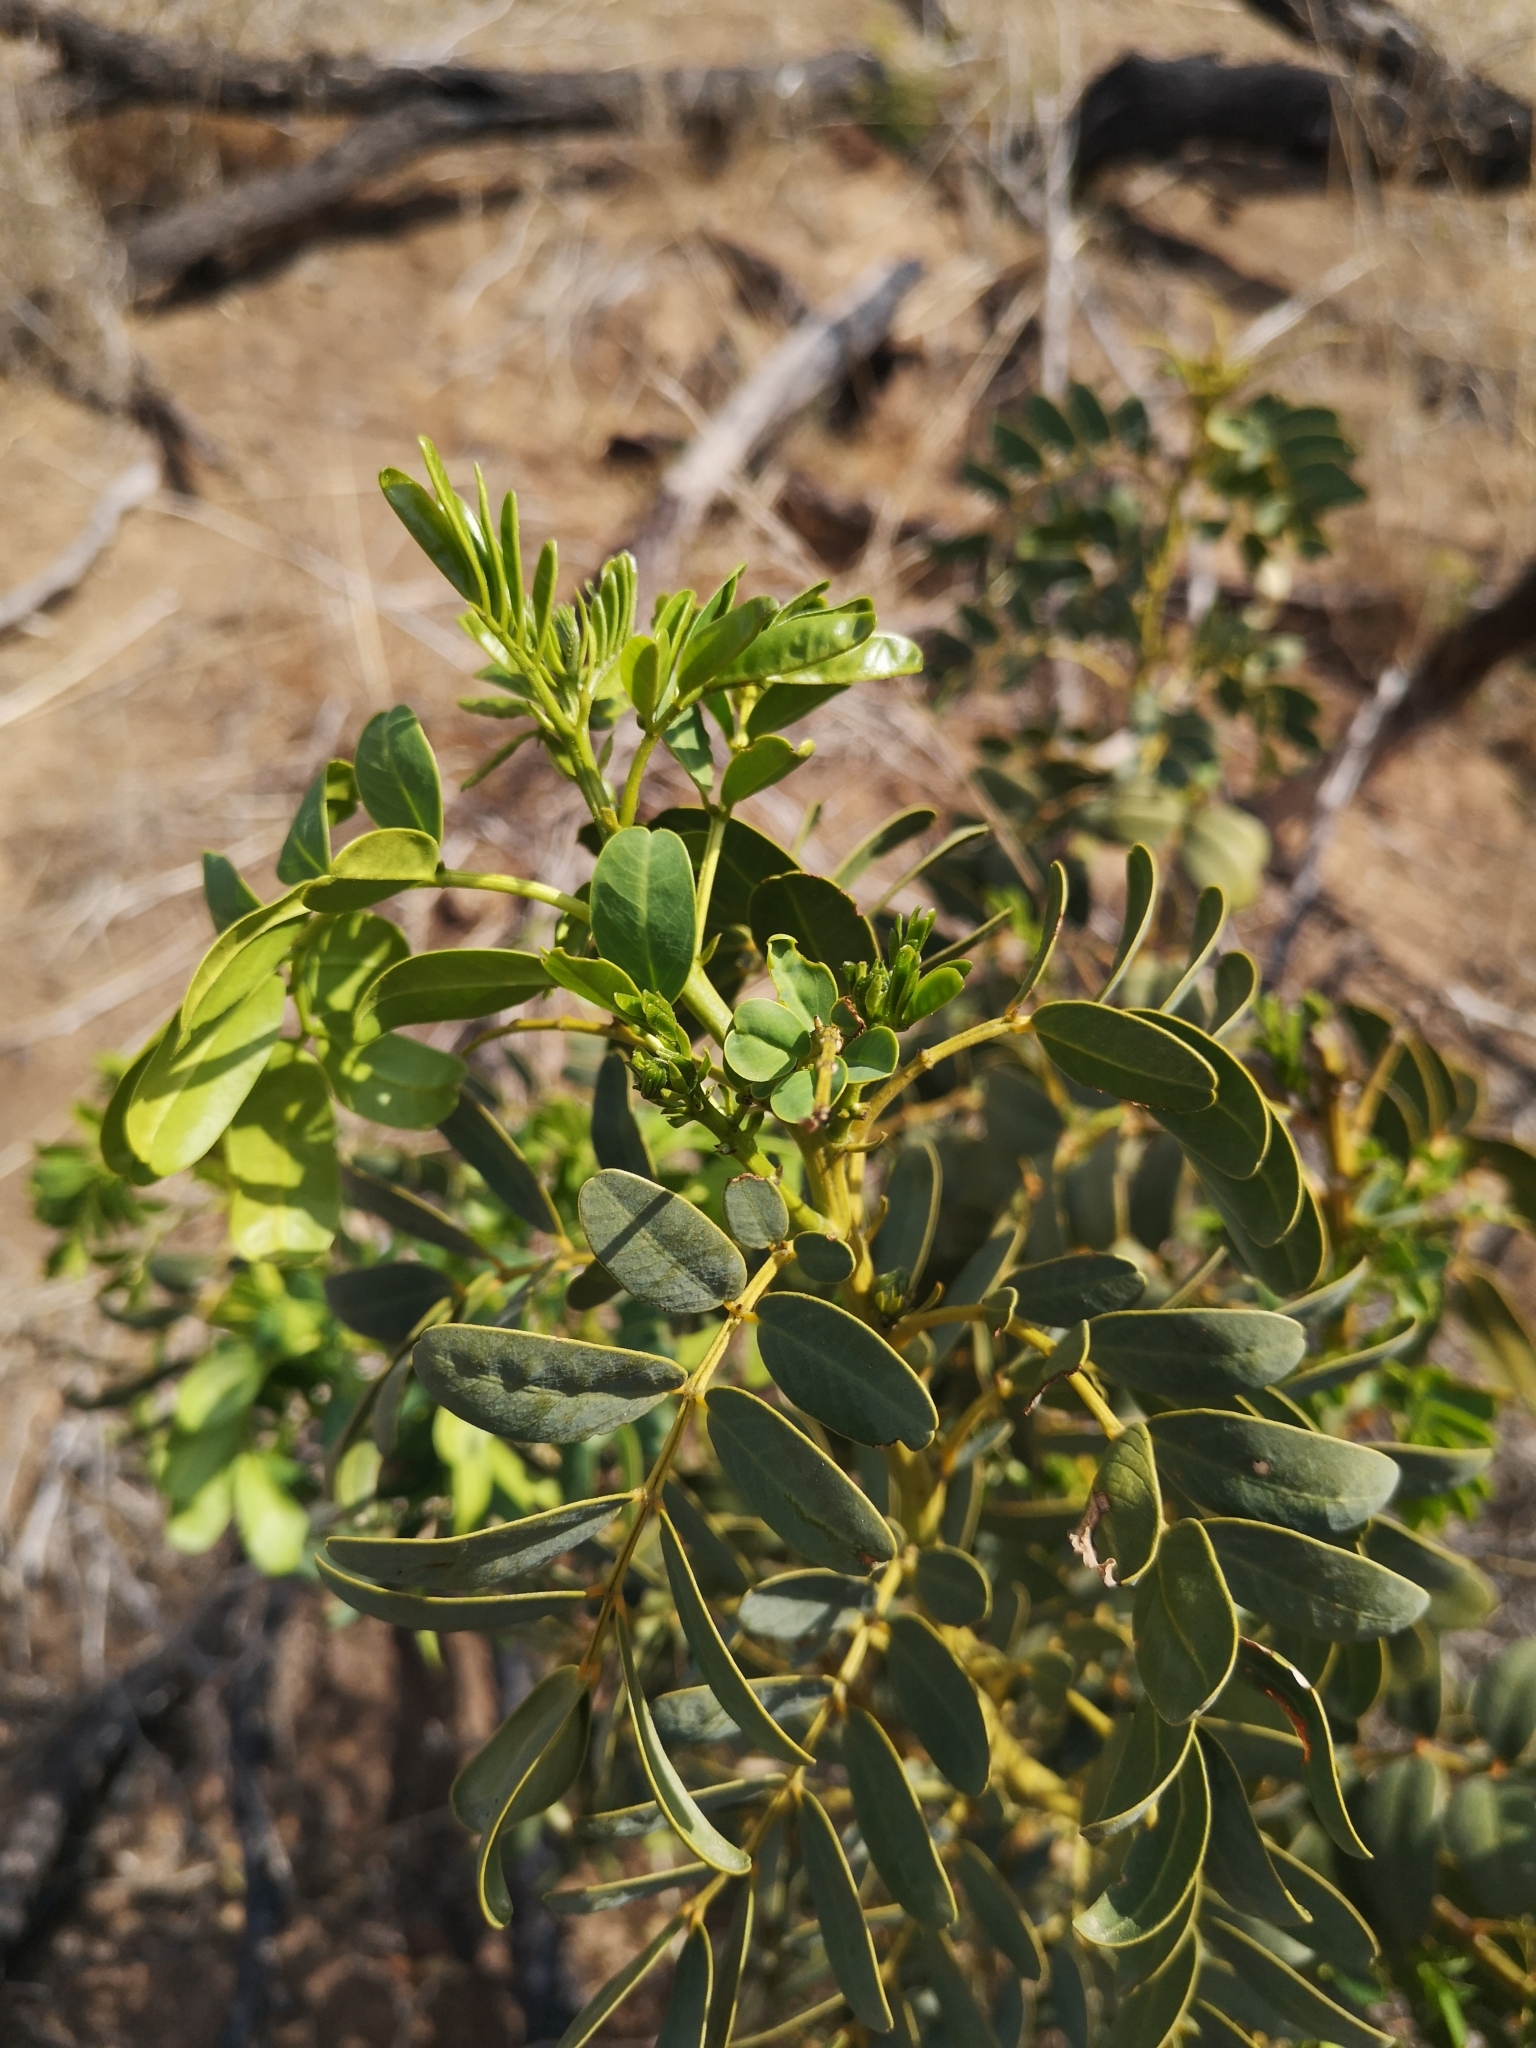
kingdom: Plantae
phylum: Tracheophyta
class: Magnoliopsida
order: Fabales
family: Fabaceae
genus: Senna
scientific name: Senna candolleana
